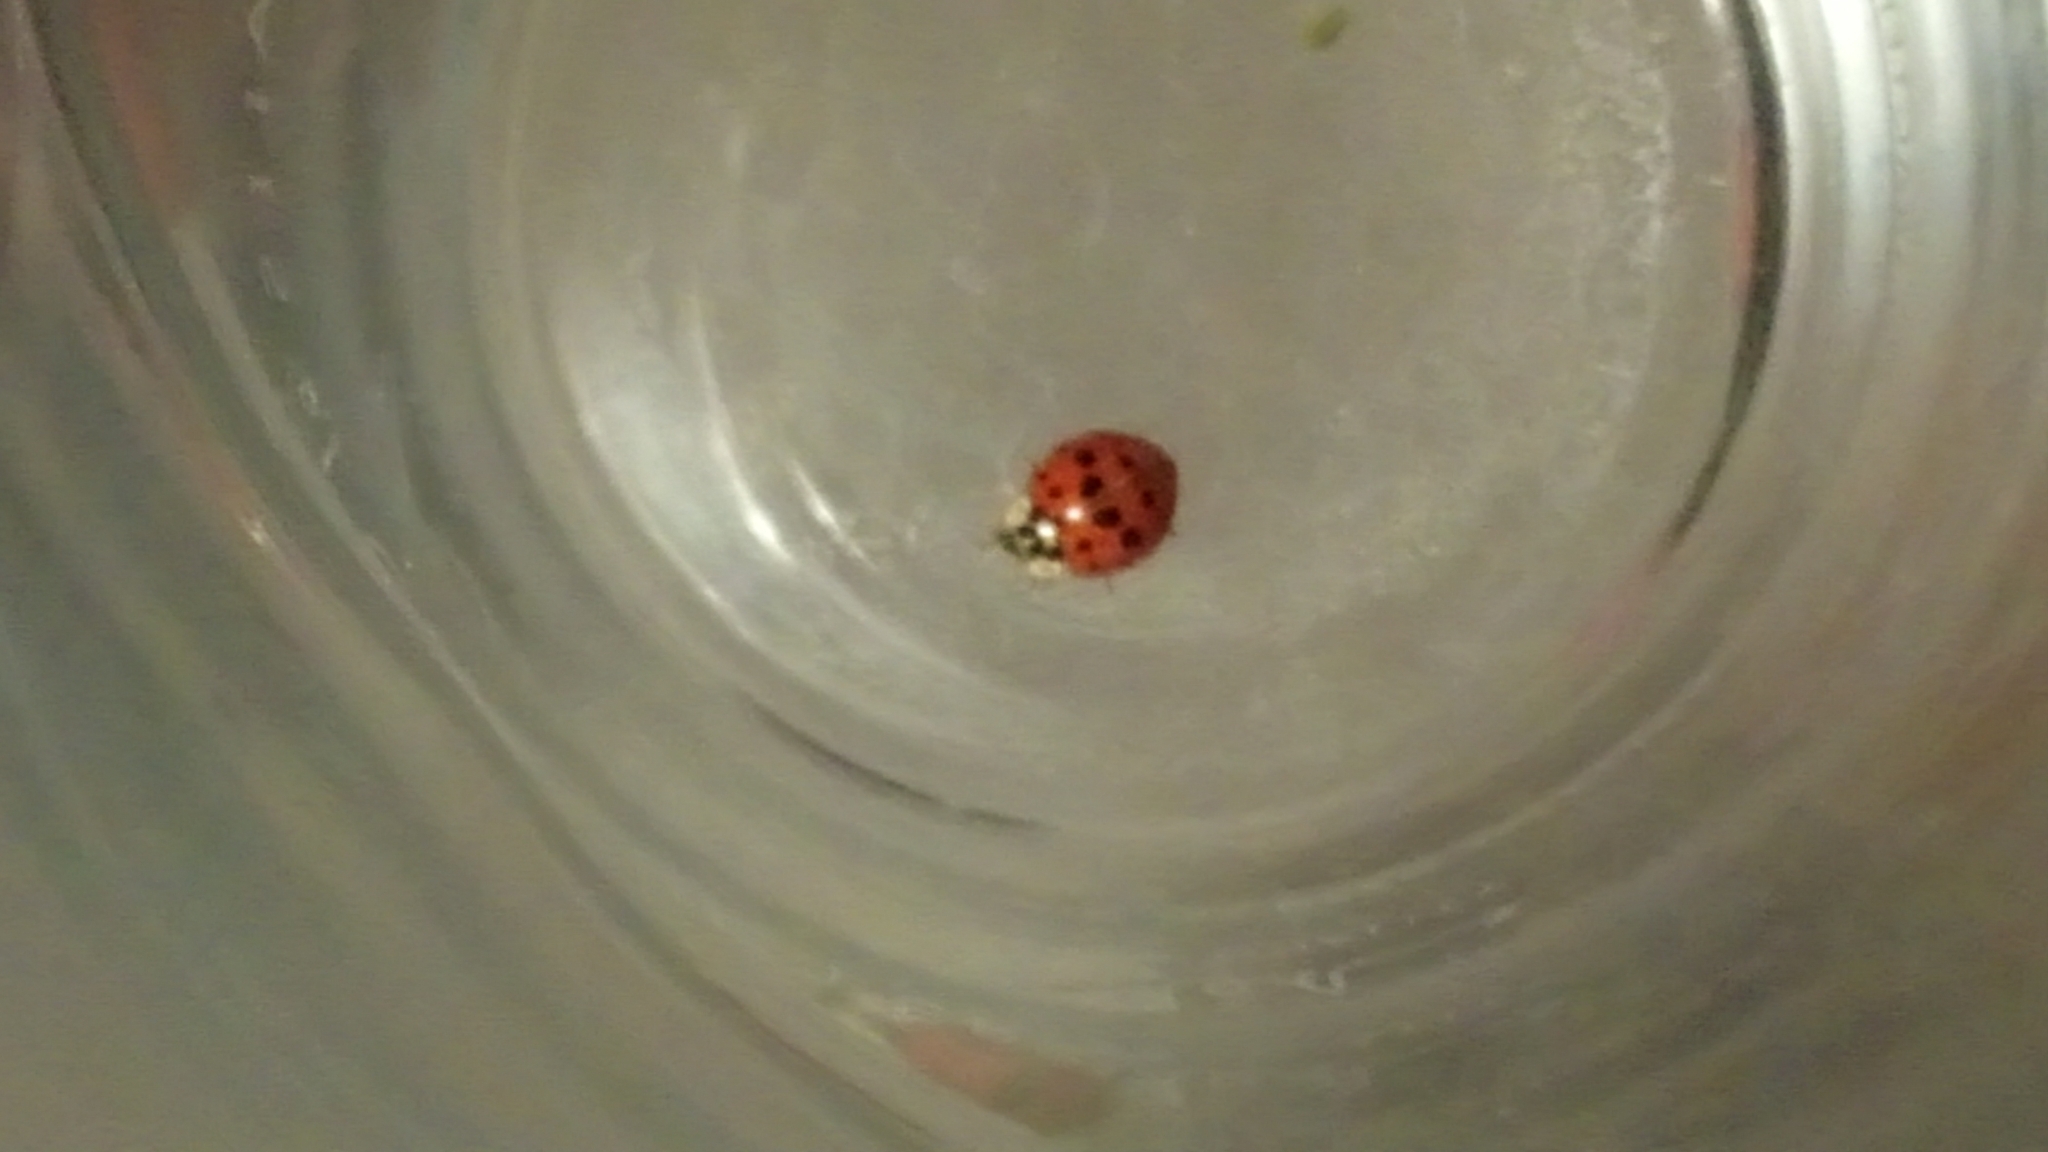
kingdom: Animalia
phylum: Arthropoda
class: Insecta
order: Coleoptera
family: Coccinellidae
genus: Harmonia
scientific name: Harmonia axyridis
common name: Harlequin ladybird
